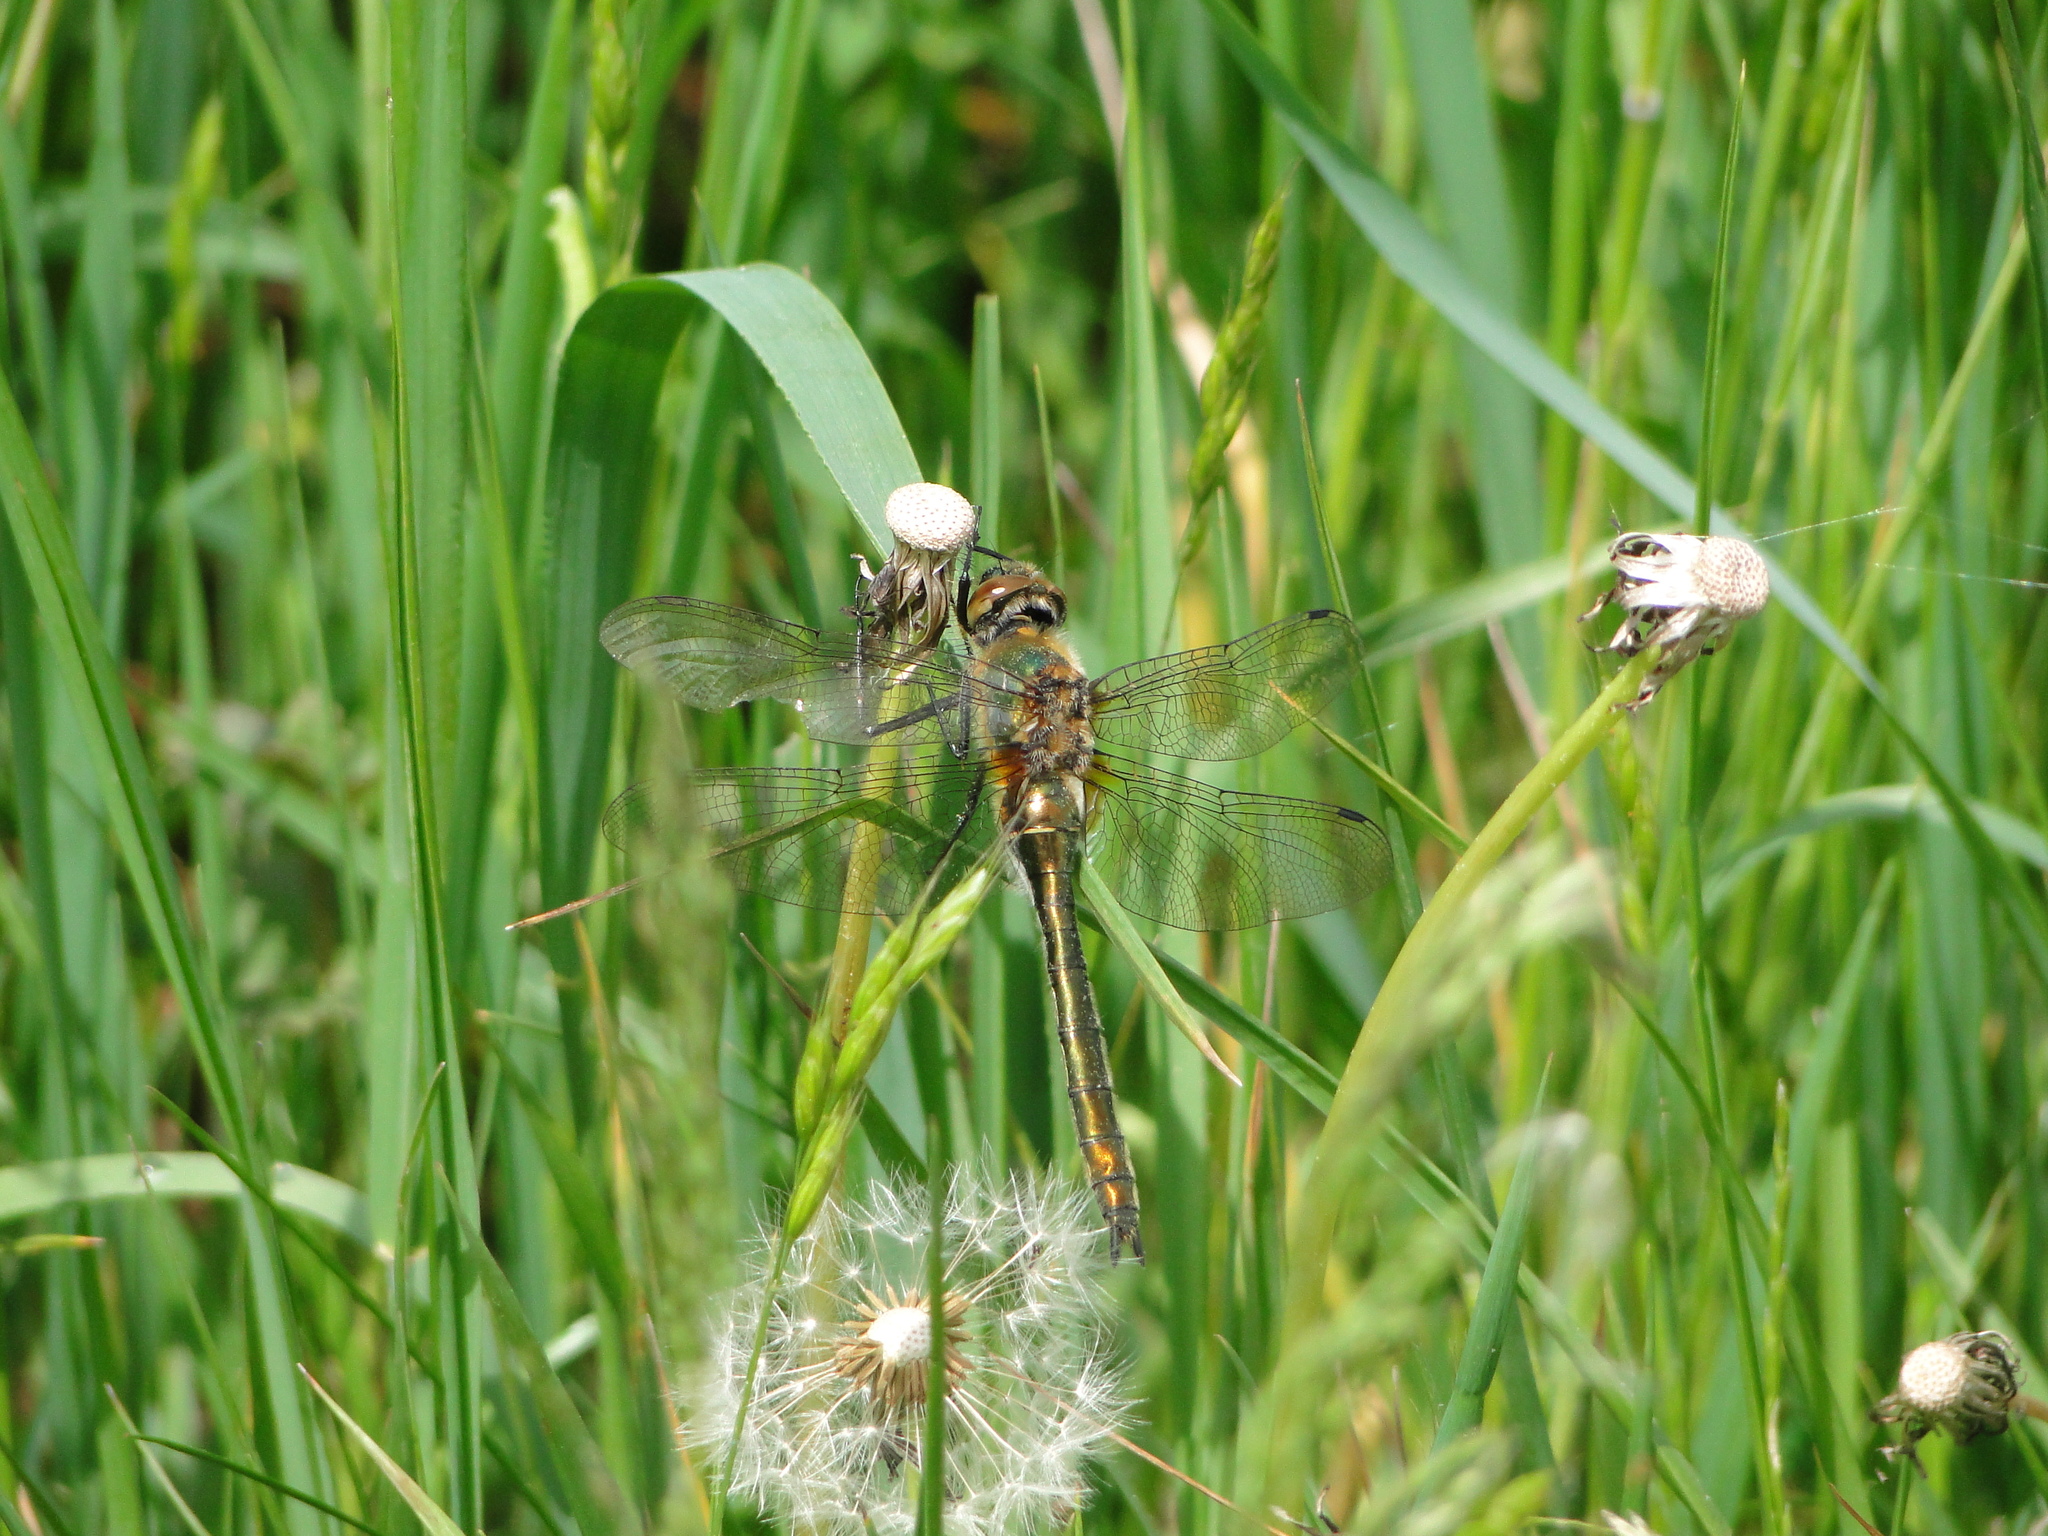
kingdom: Animalia
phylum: Arthropoda
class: Insecta
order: Odonata
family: Corduliidae
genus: Cordulia
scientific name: Cordulia aenea
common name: Downy emerald
